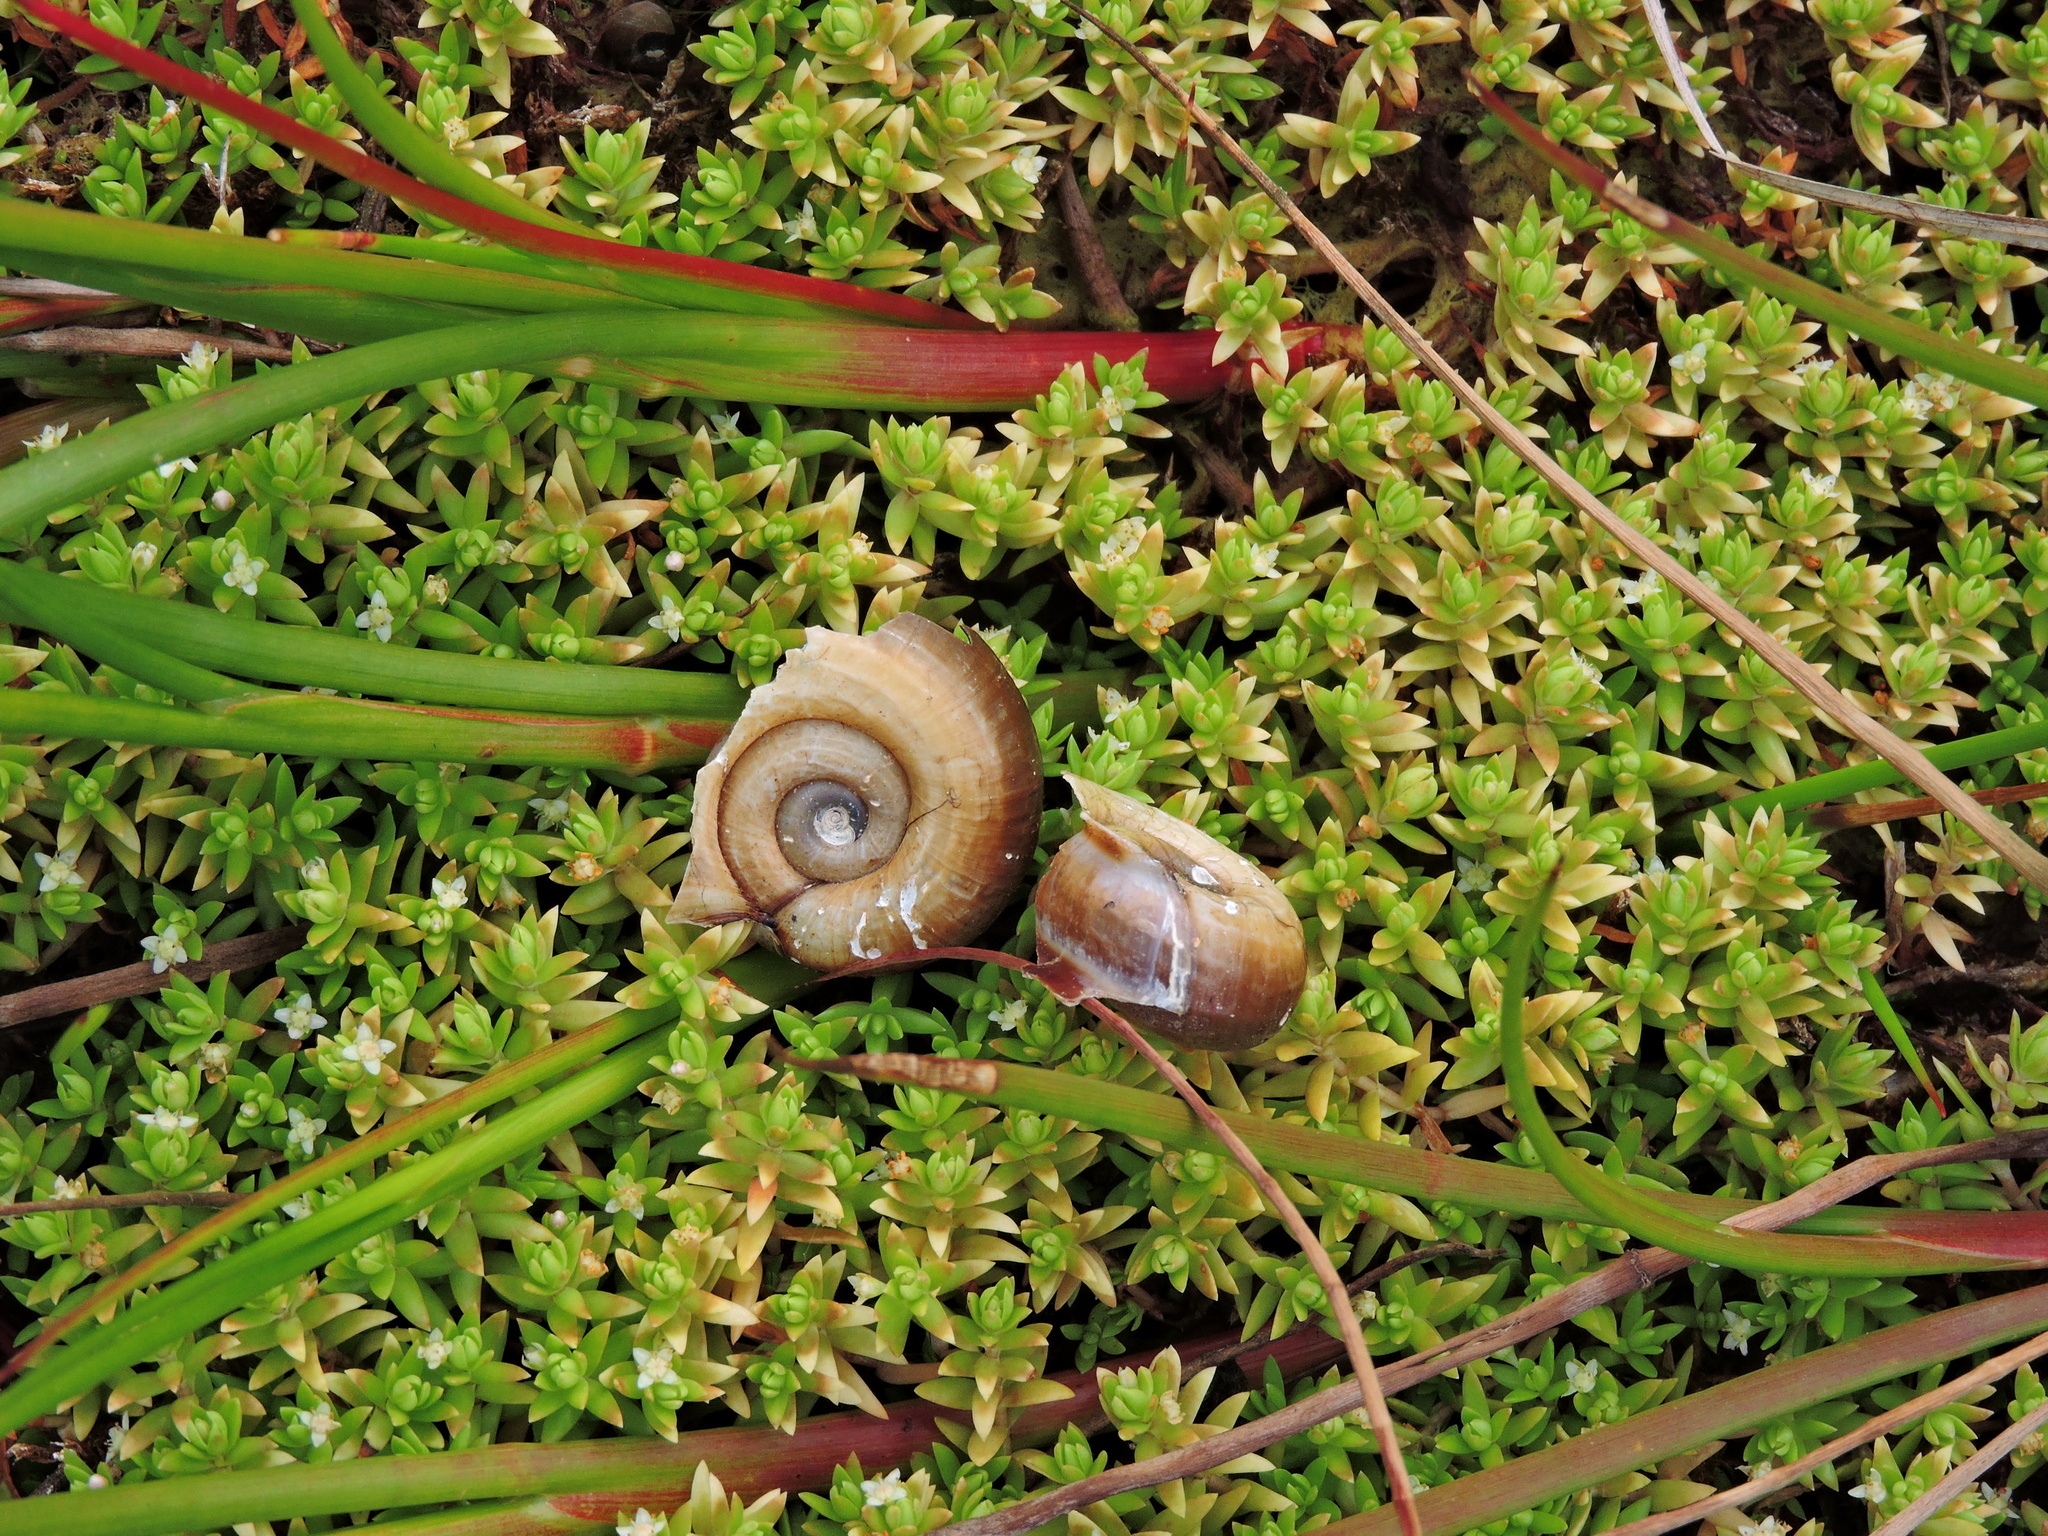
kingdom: Animalia
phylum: Mollusca
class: Gastropoda
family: Planorbidae
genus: Planorbarius
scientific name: Planorbarius corneus
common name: Great ramshorn
